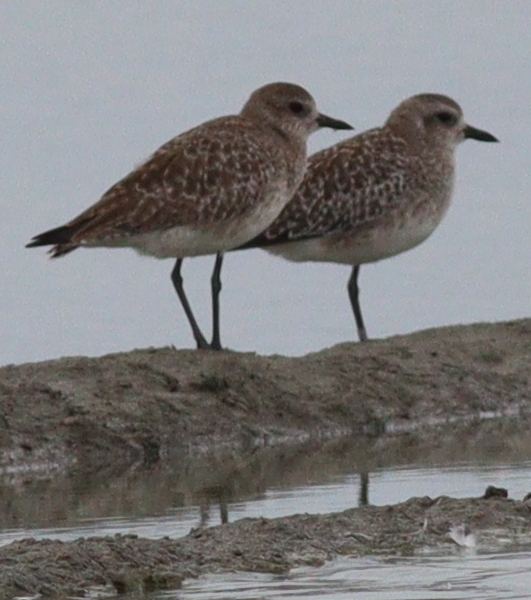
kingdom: Animalia
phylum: Chordata
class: Aves
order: Charadriiformes
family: Charadriidae
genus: Pluvialis
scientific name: Pluvialis squatarola
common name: Grey plover
